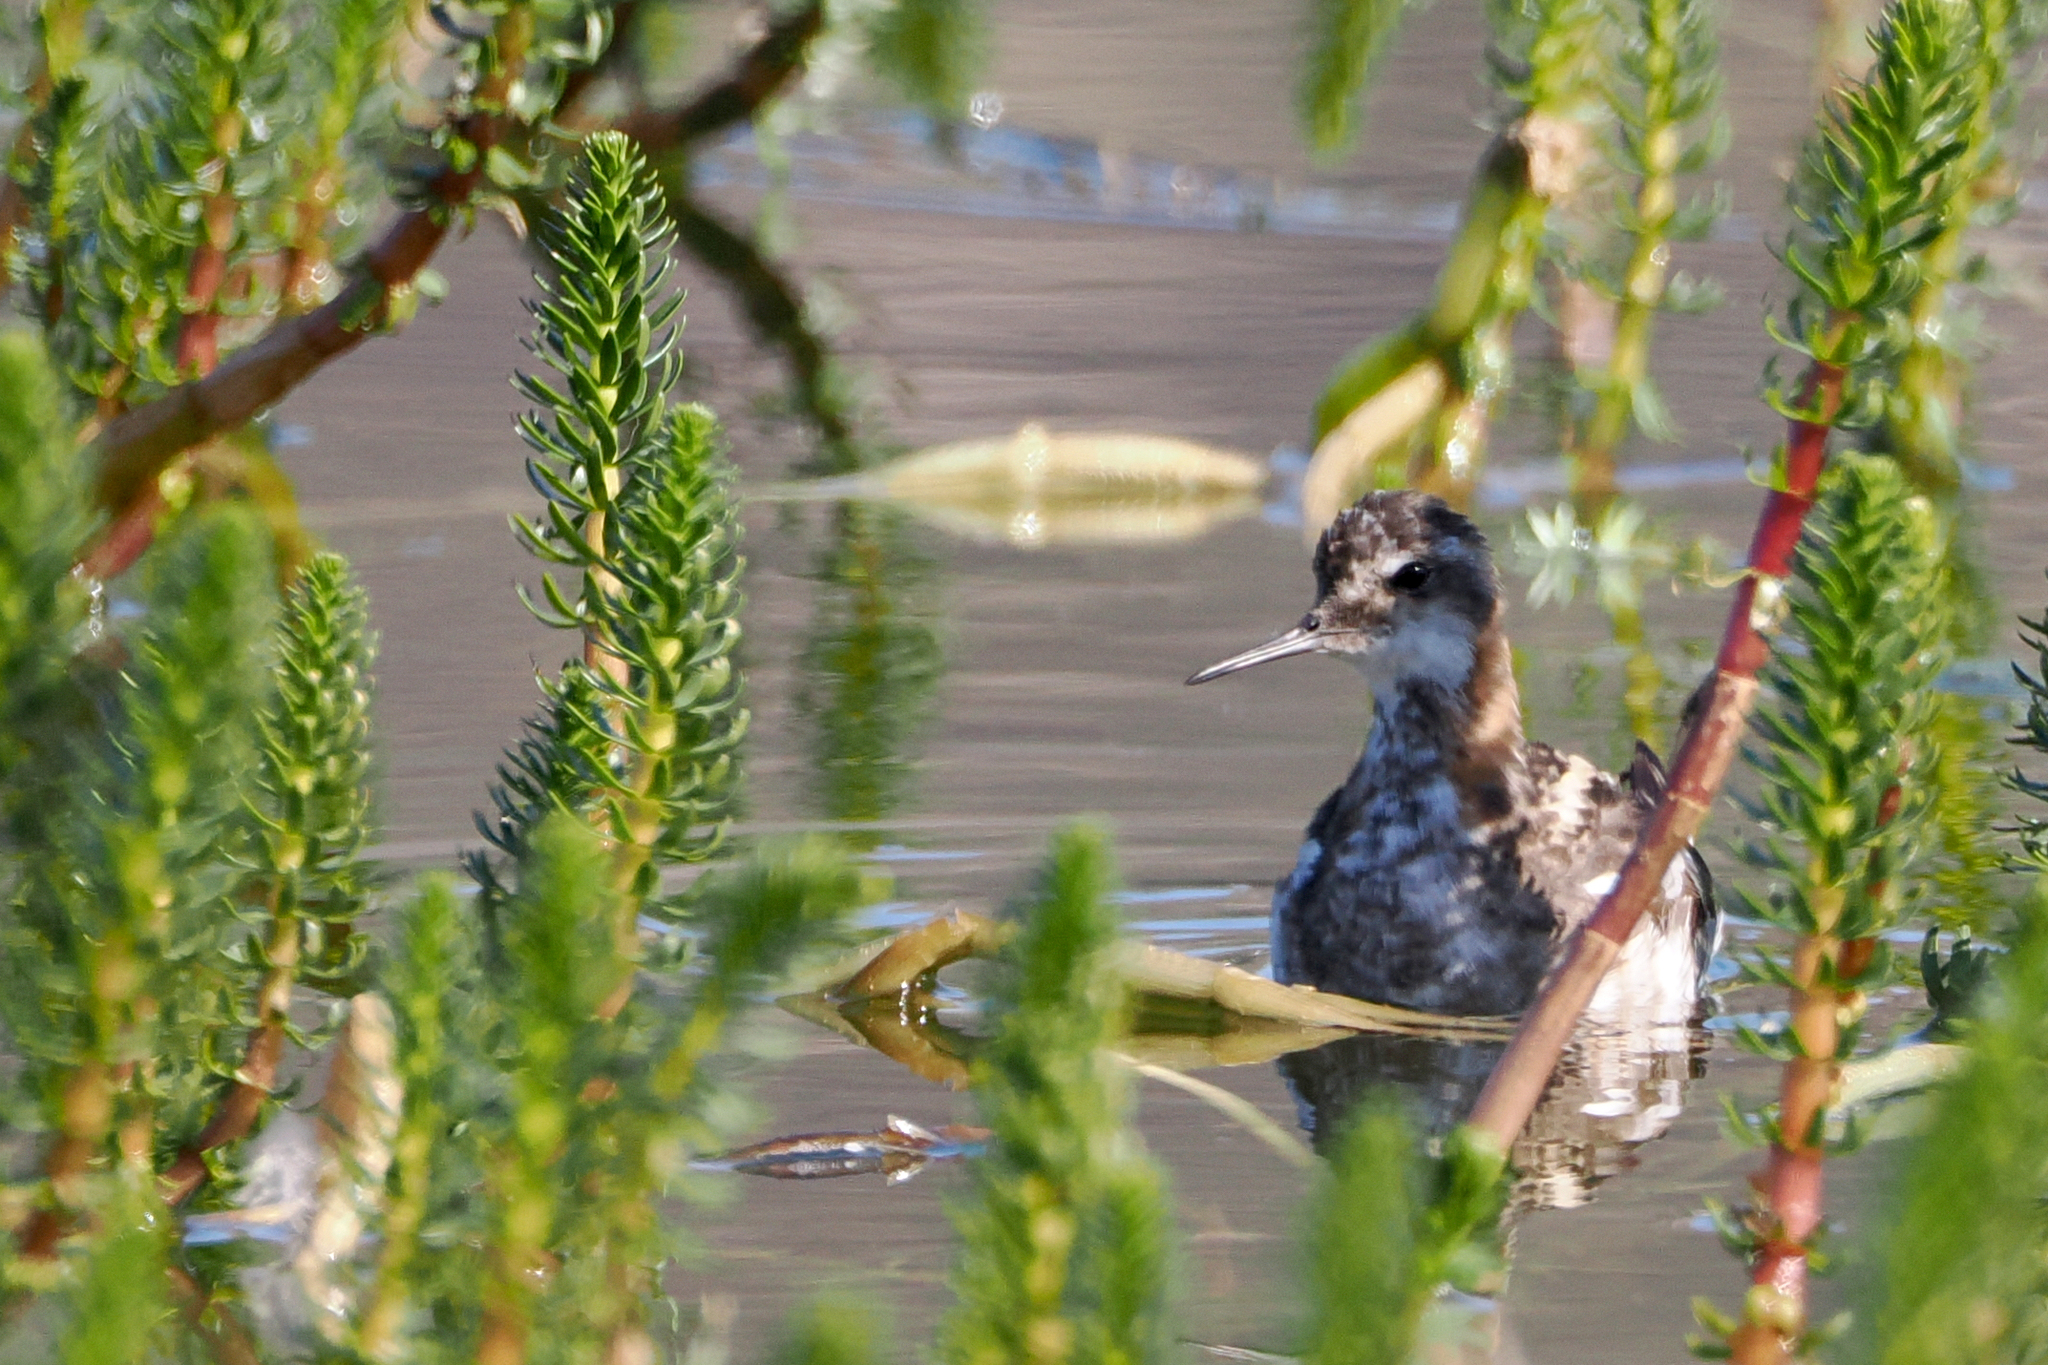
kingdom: Animalia
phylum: Chordata
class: Aves
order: Charadriiformes
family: Scolopacidae
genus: Phalaropus
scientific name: Phalaropus lobatus
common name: Red-necked phalarope
